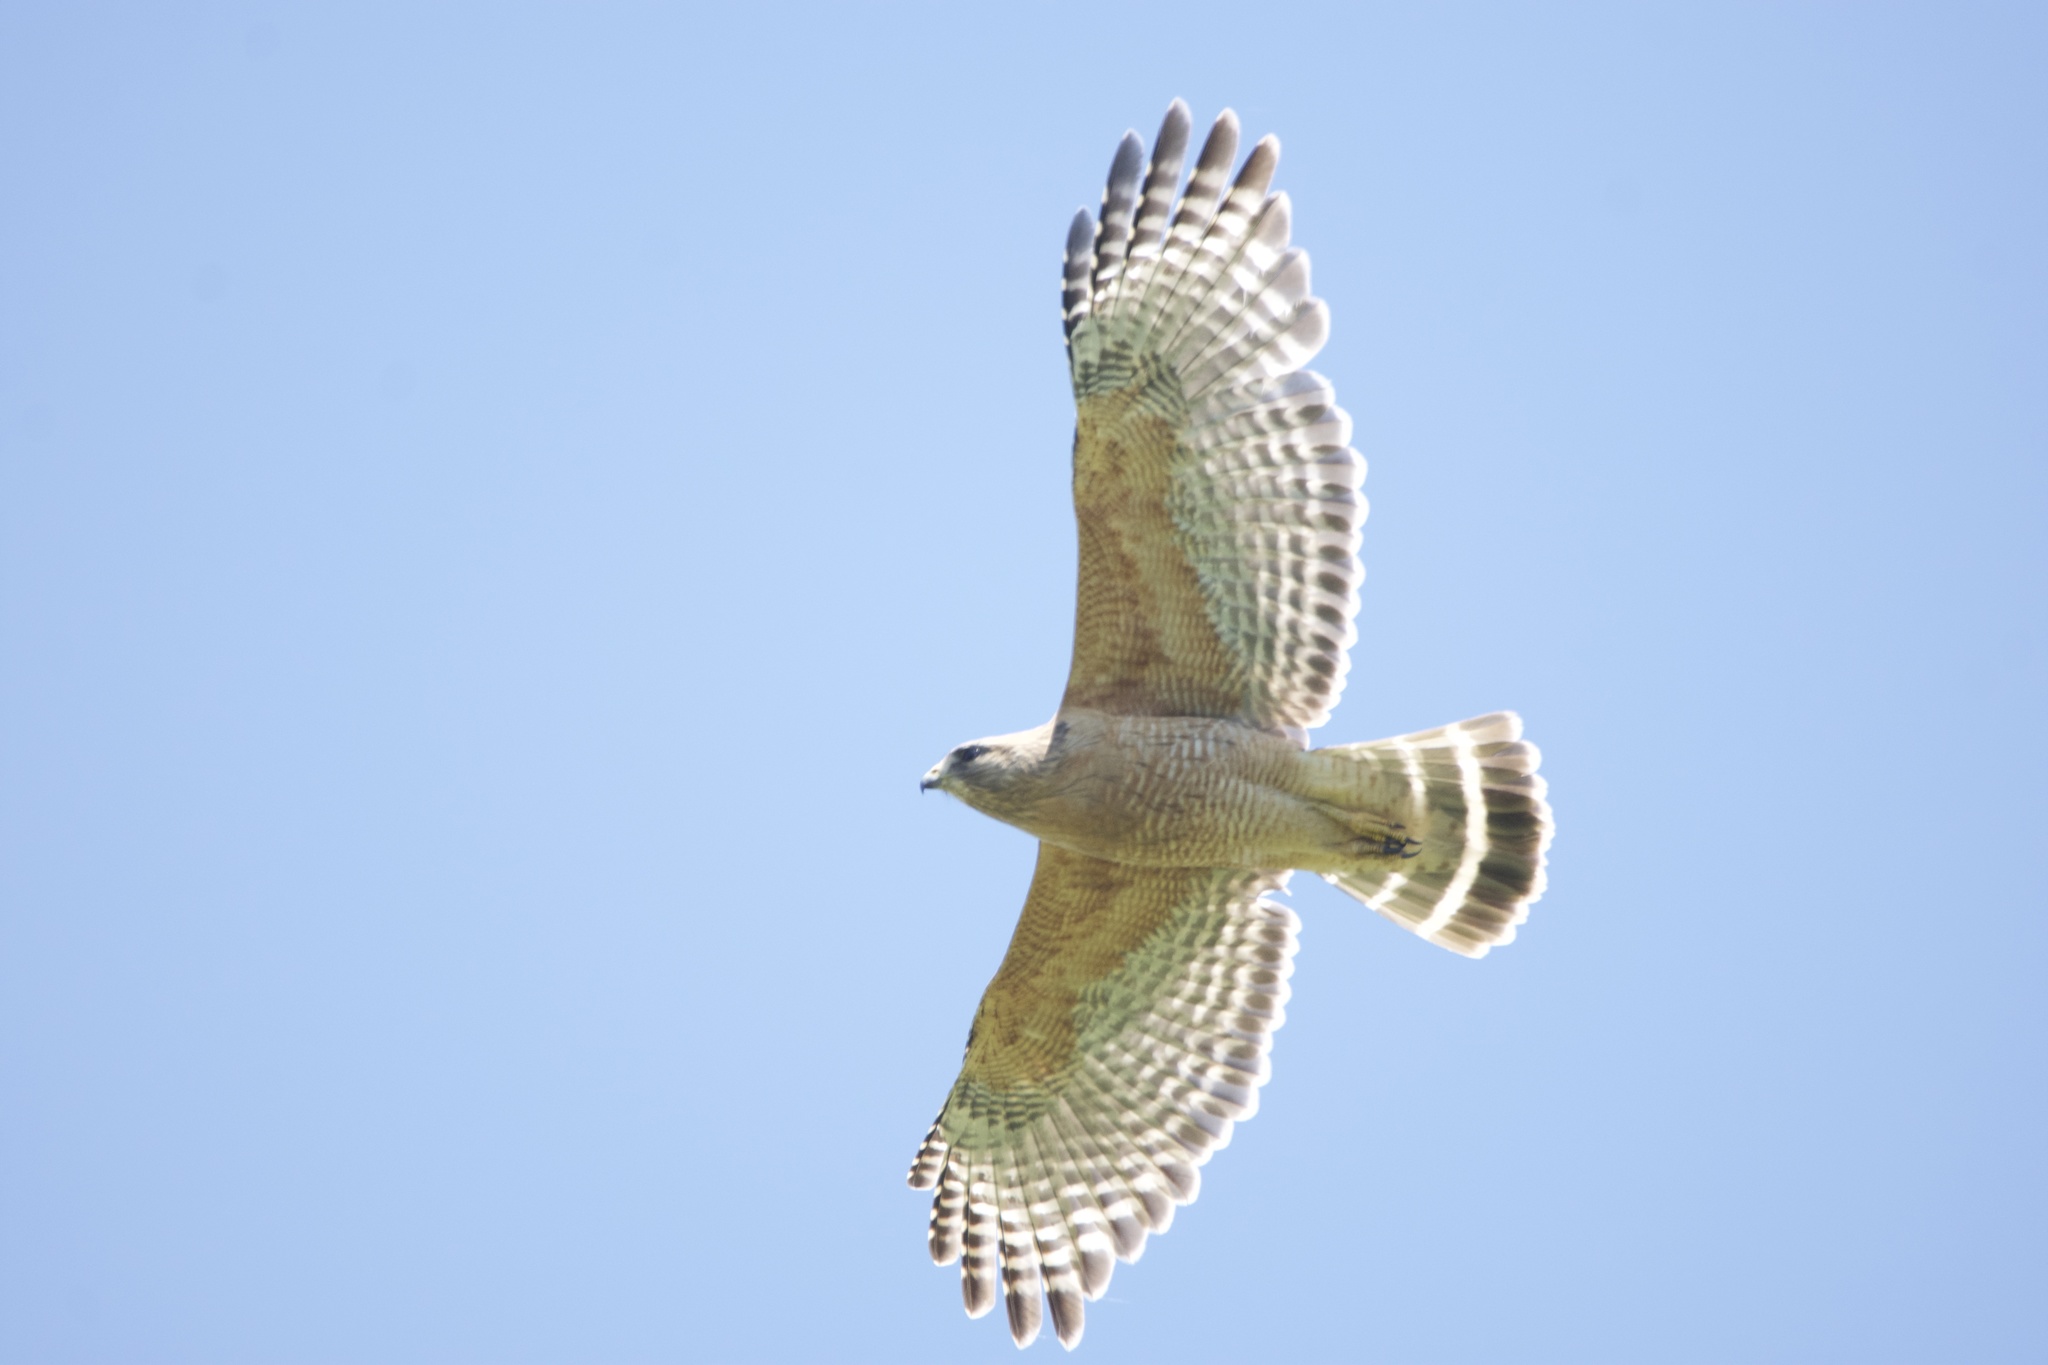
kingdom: Animalia
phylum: Chordata
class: Aves
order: Accipitriformes
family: Accipitridae
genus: Buteo
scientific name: Buteo lineatus
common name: Red-shouldered hawk
